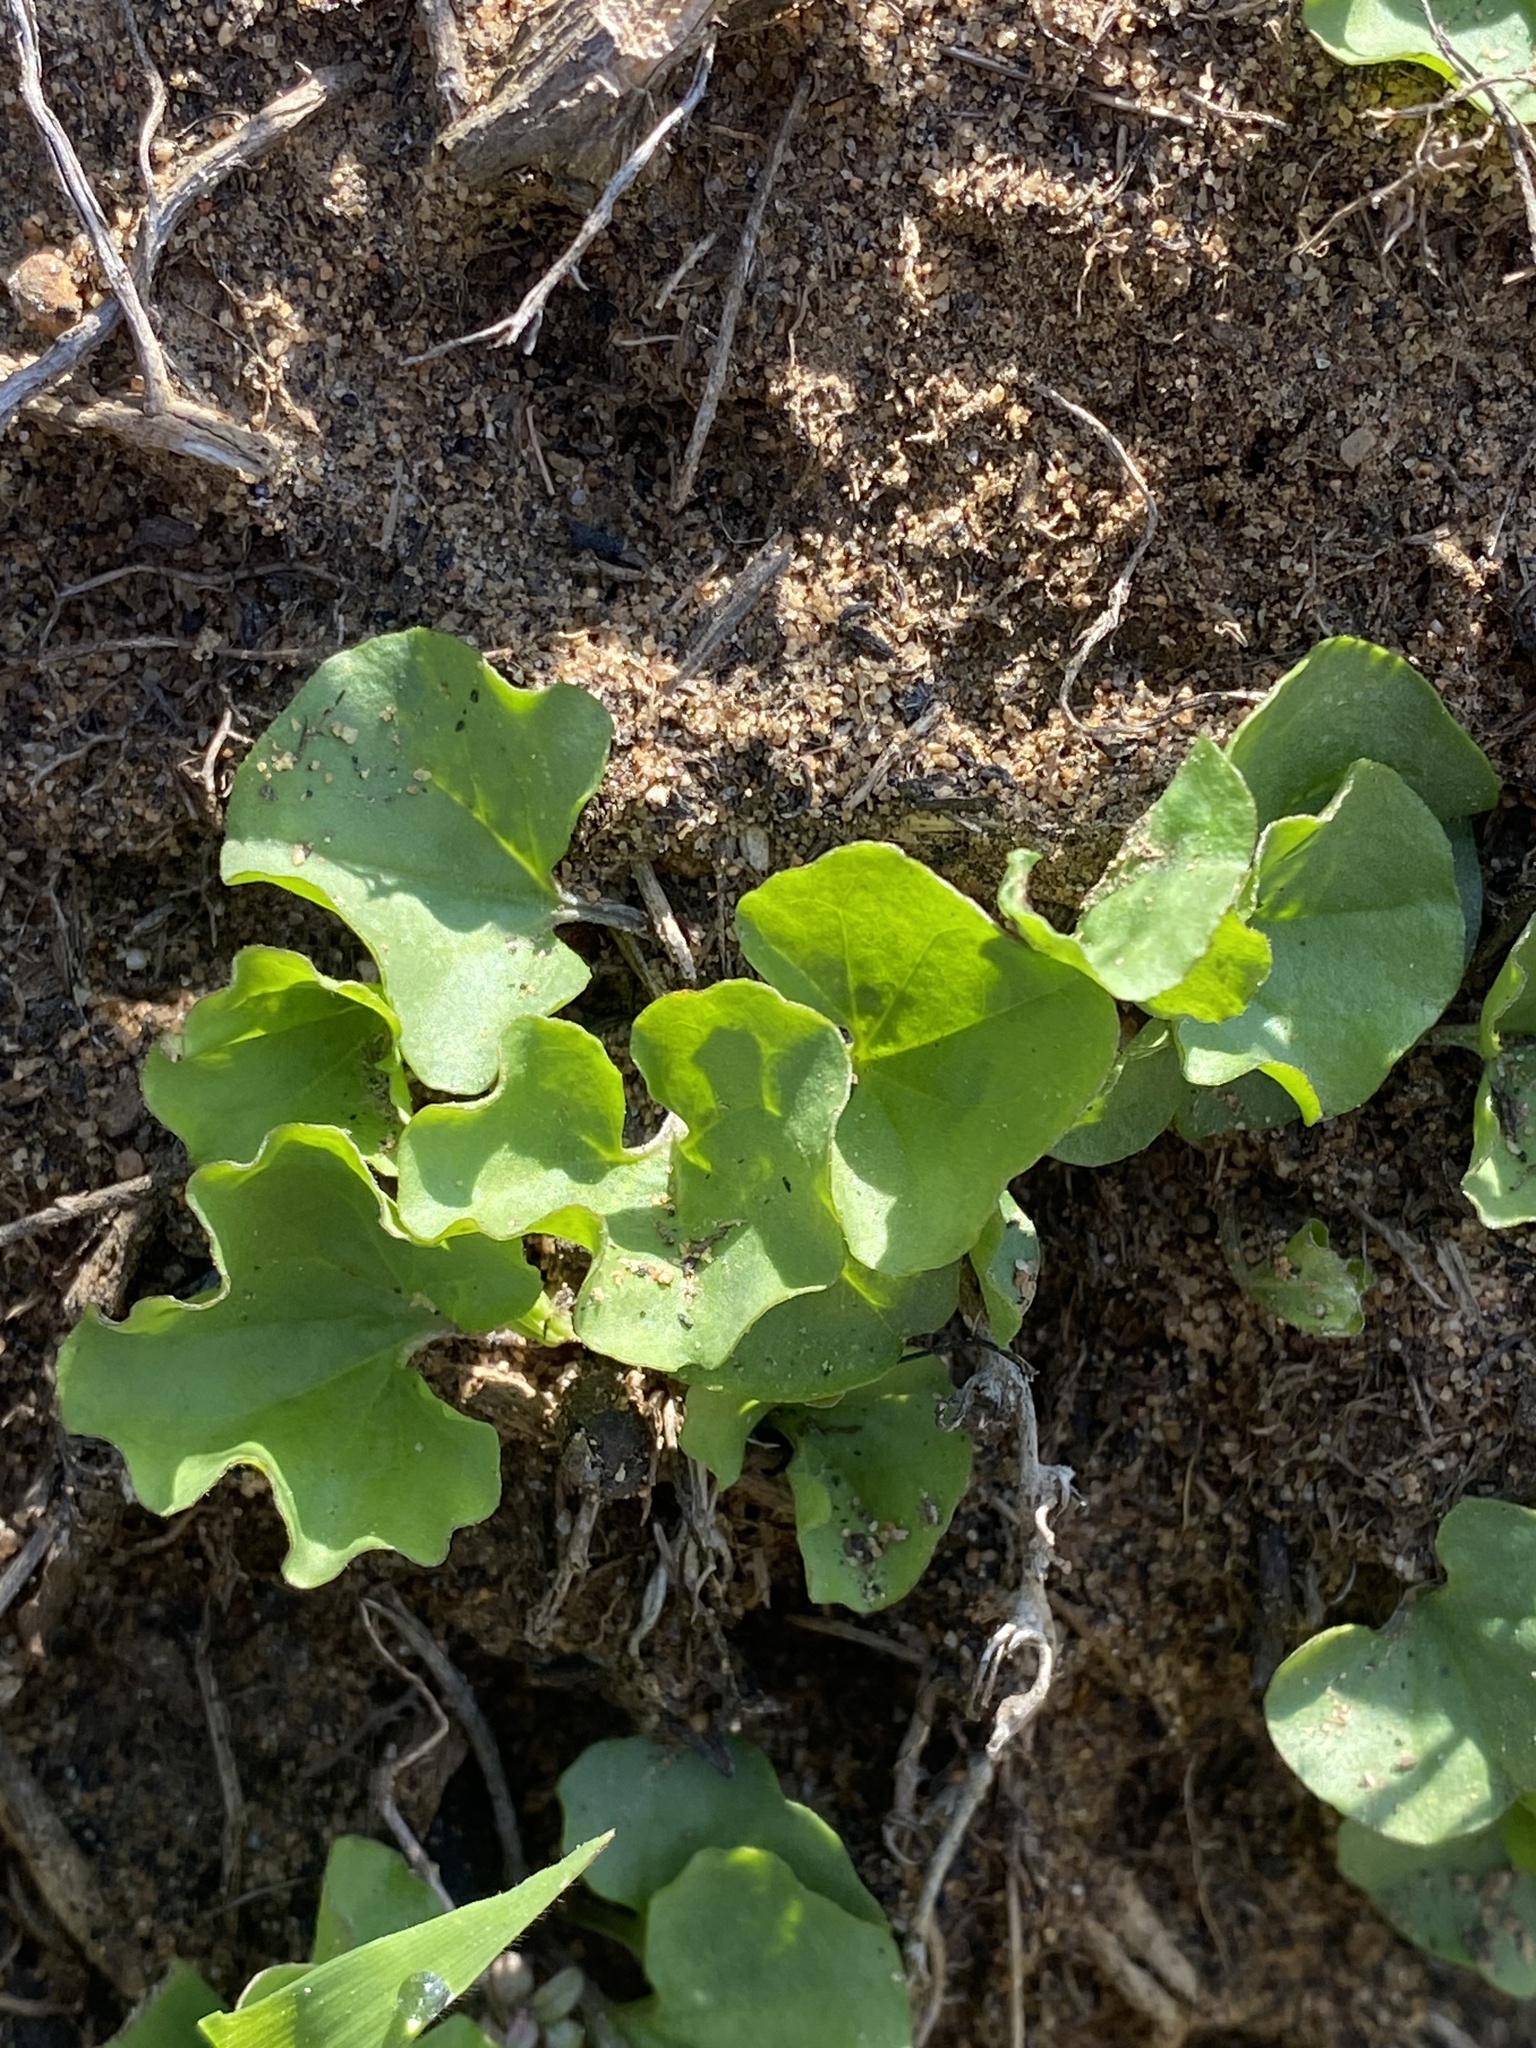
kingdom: Plantae
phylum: Tracheophyta
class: Magnoliopsida
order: Solanales
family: Convolvulaceae
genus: Dichondra
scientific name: Dichondra occidentalis
